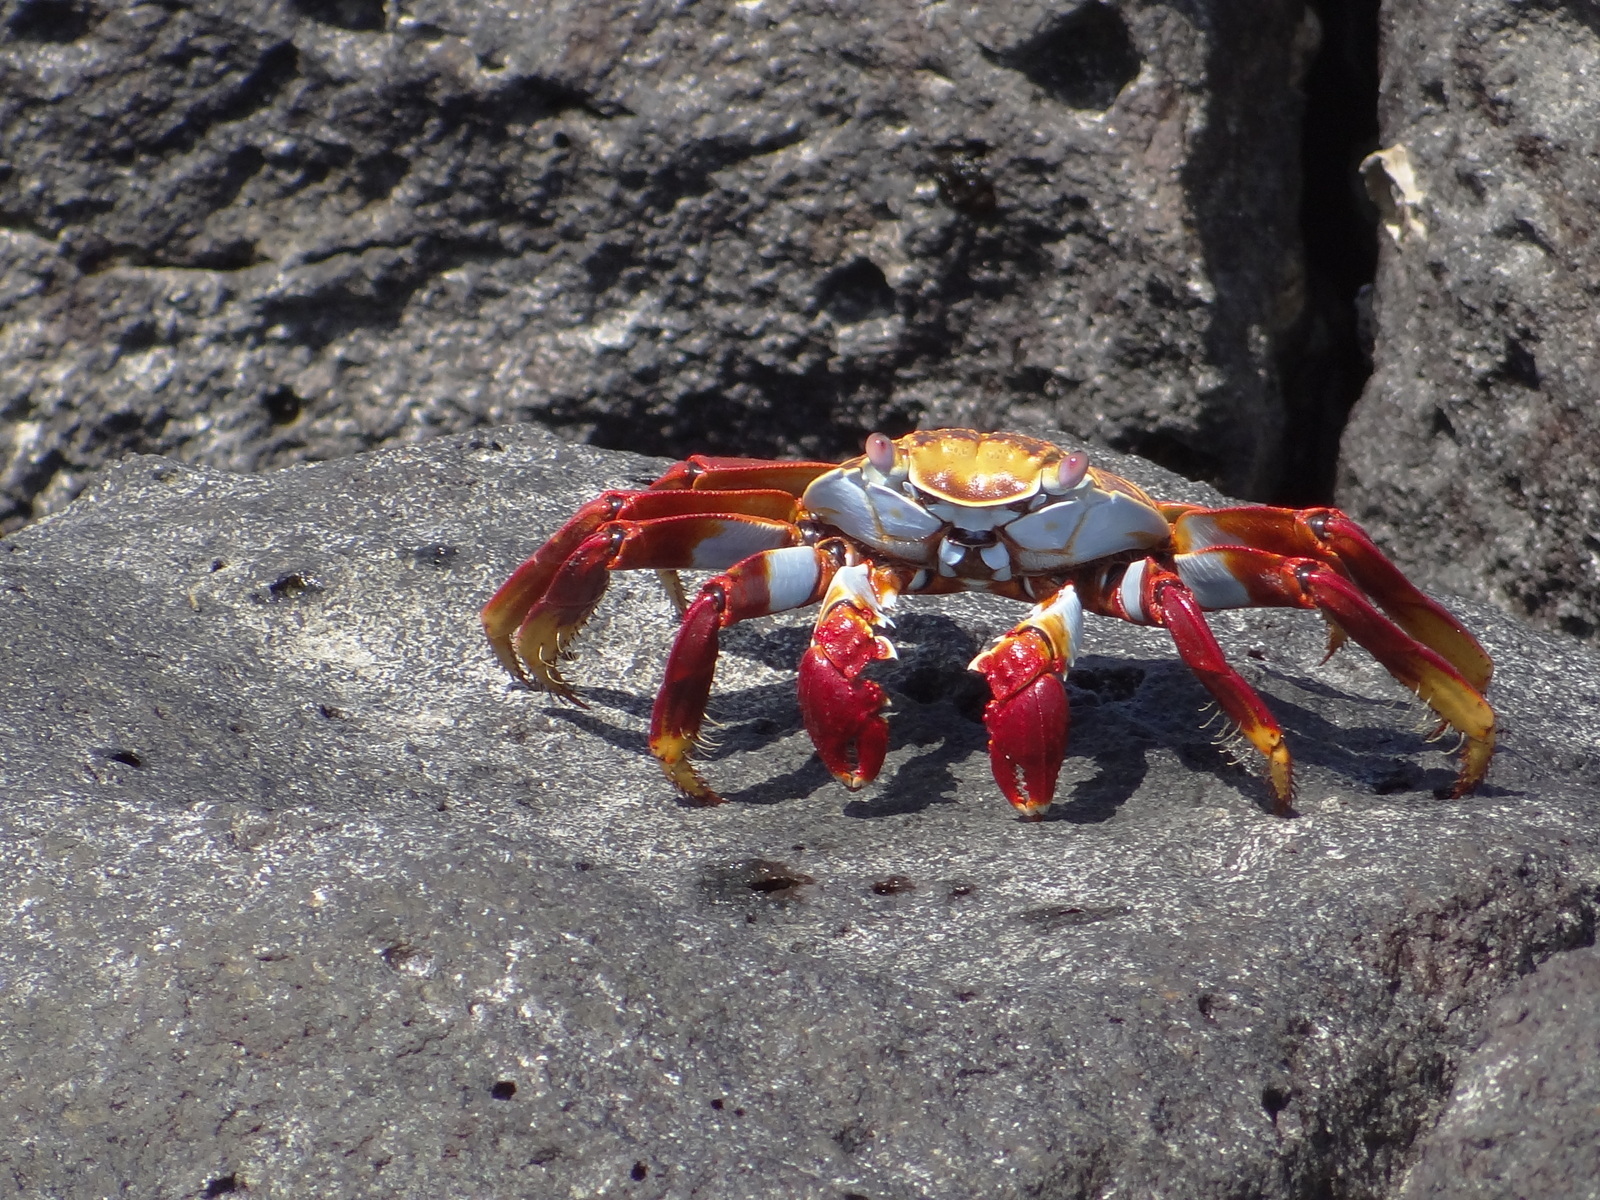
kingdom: Animalia
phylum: Arthropoda
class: Malacostraca
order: Decapoda
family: Grapsidae
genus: Grapsus
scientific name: Grapsus grapsus
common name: Sally lightfoot
